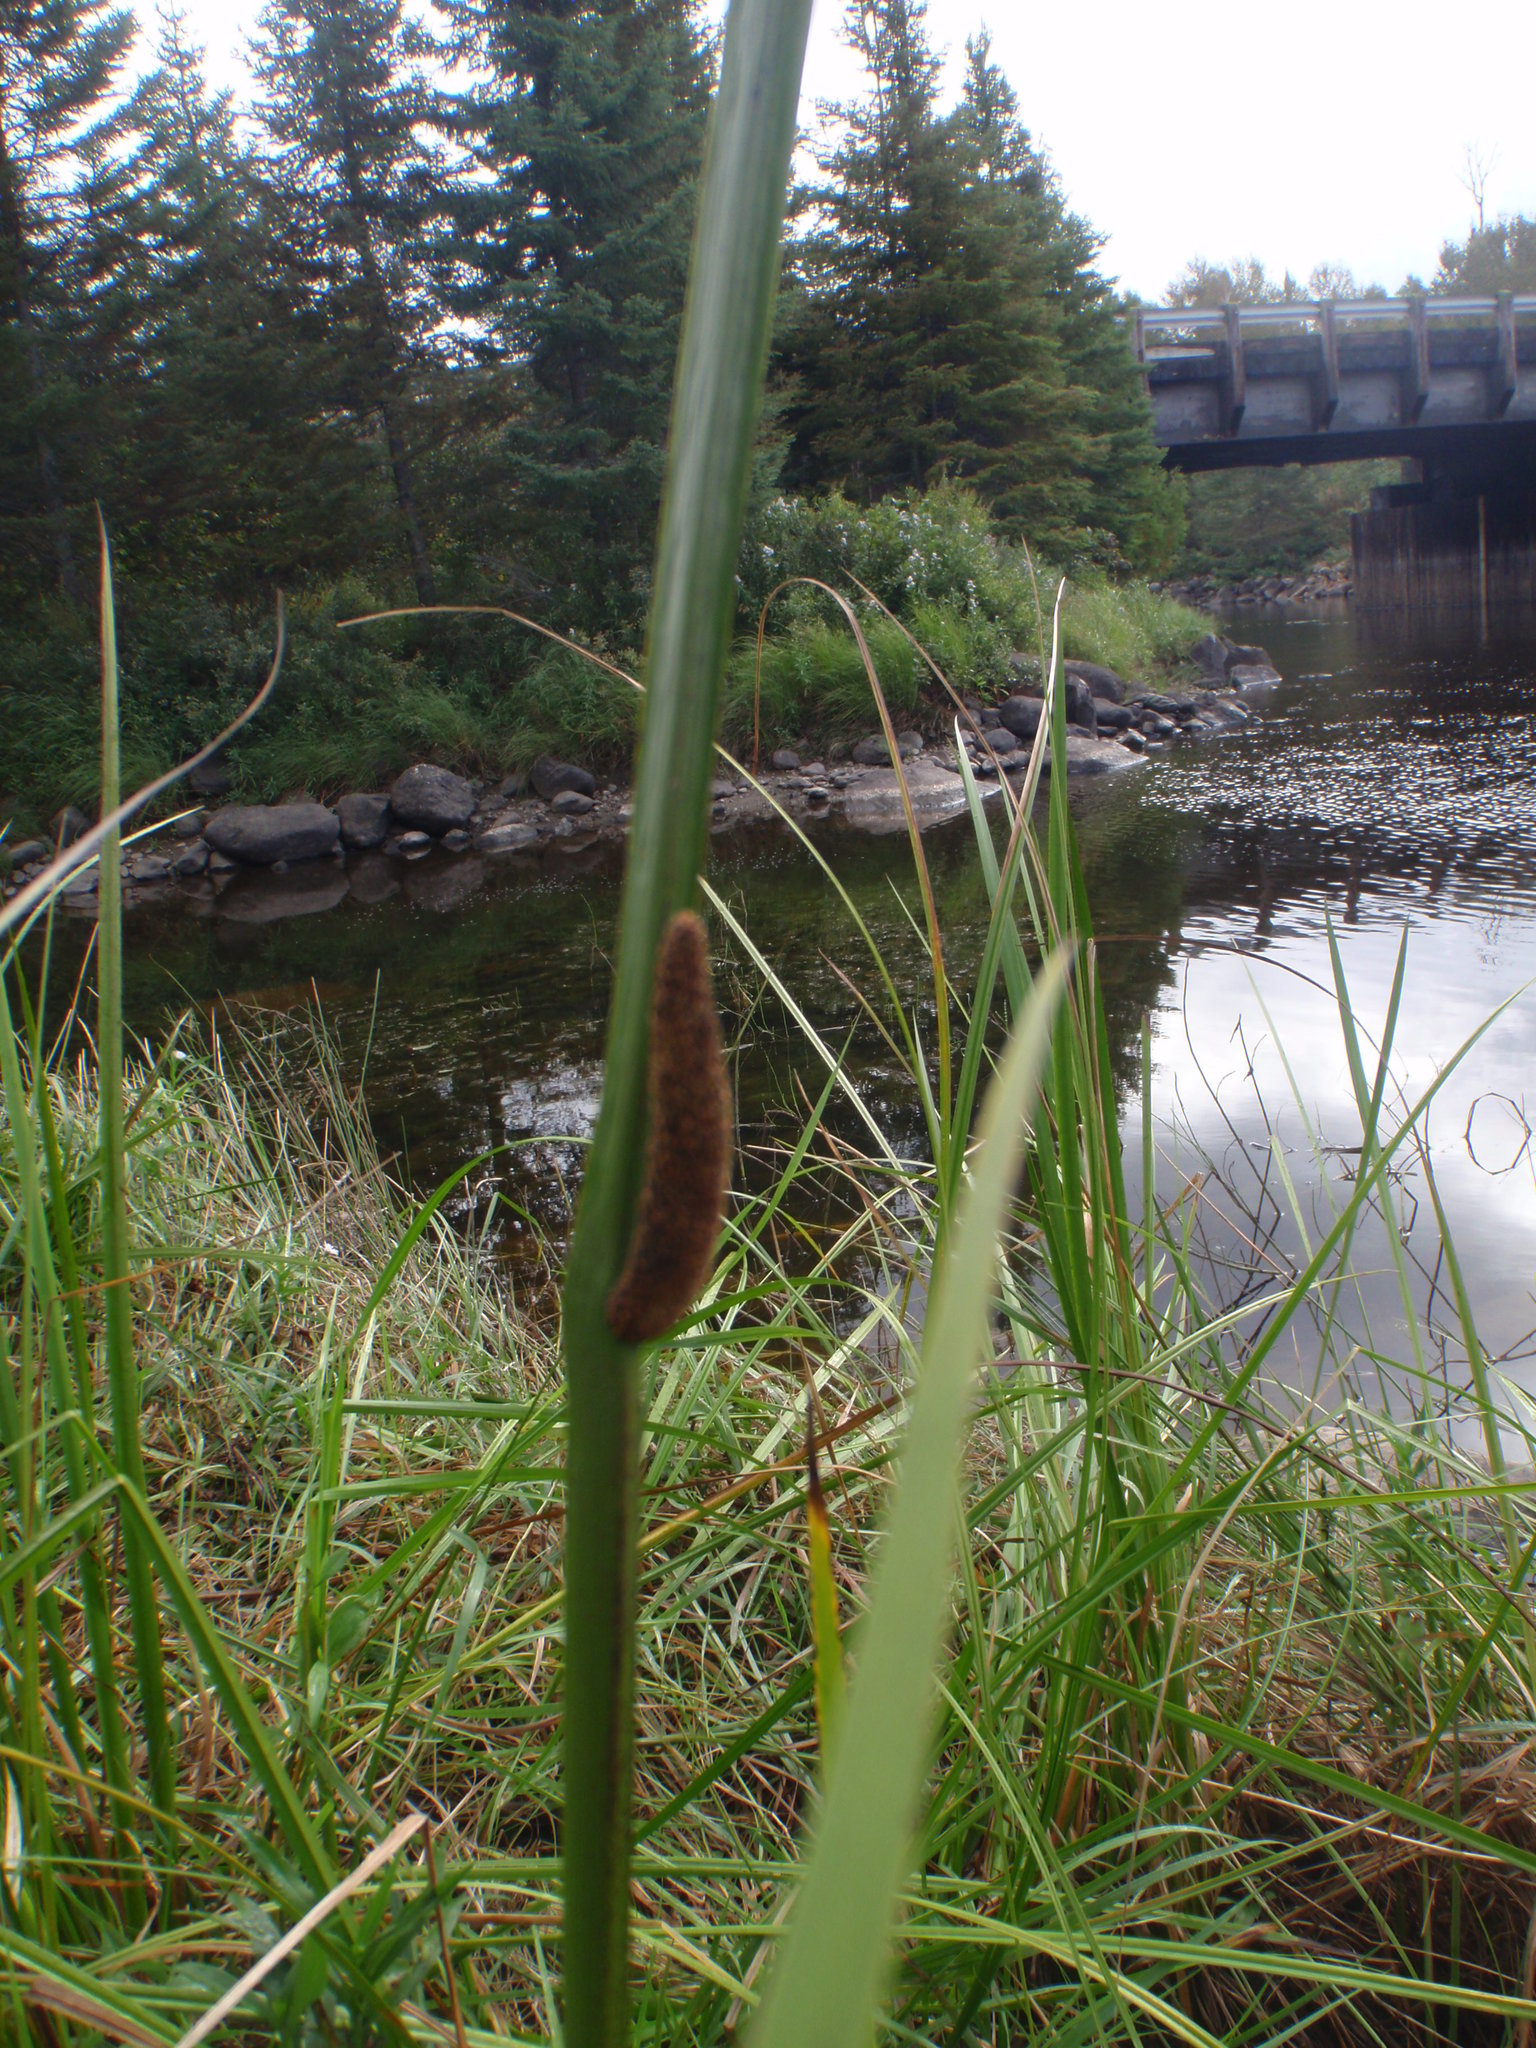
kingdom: Plantae
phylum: Tracheophyta
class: Liliopsida
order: Acorales
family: Acoraceae
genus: Acorus
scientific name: Acorus calamus
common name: Sweet-flag
